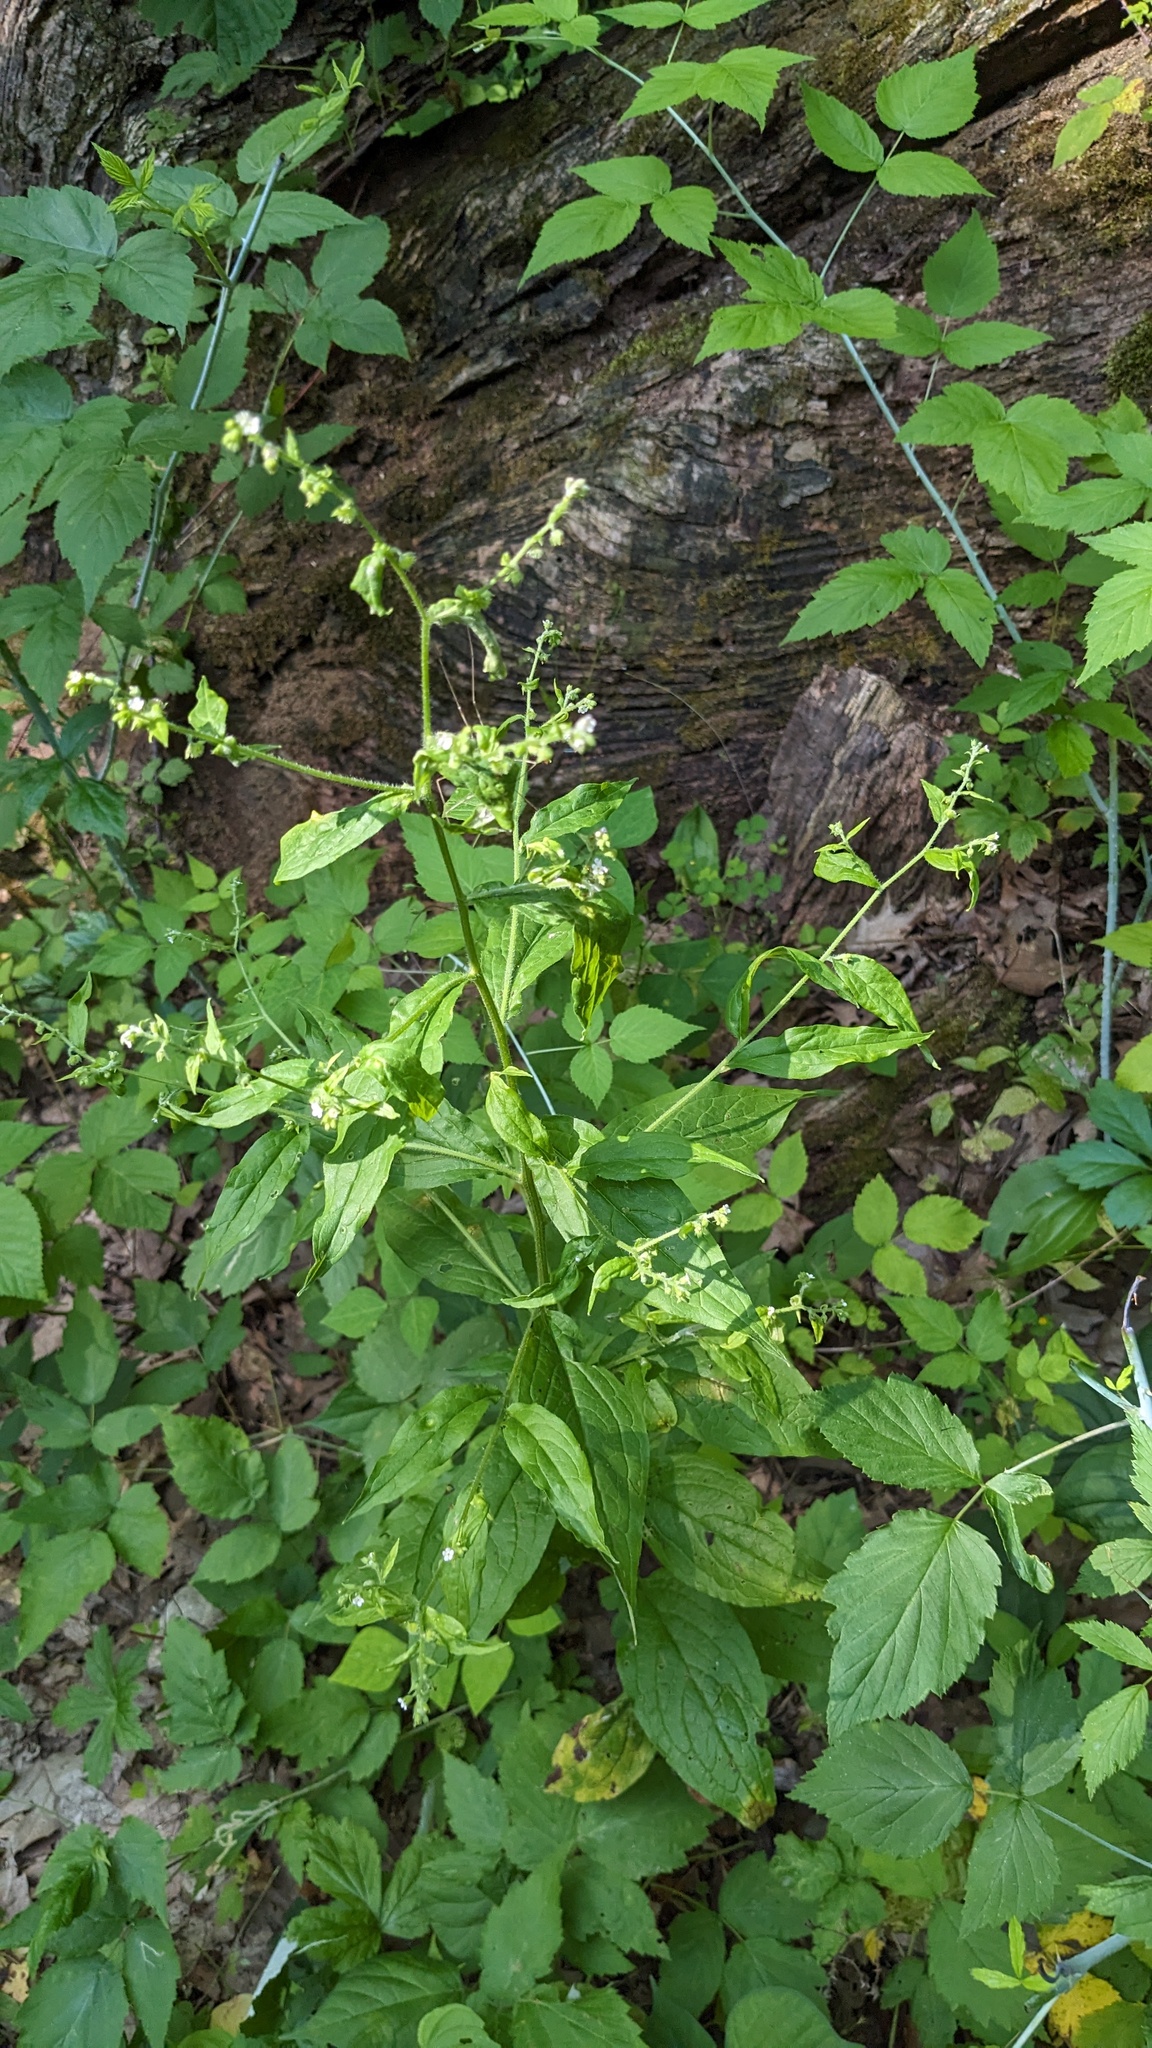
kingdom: Plantae
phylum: Tracheophyta
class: Magnoliopsida
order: Boraginales
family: Boraginaceae
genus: Hackelia
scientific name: Hackelia virginiana
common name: Beggar's-lice
